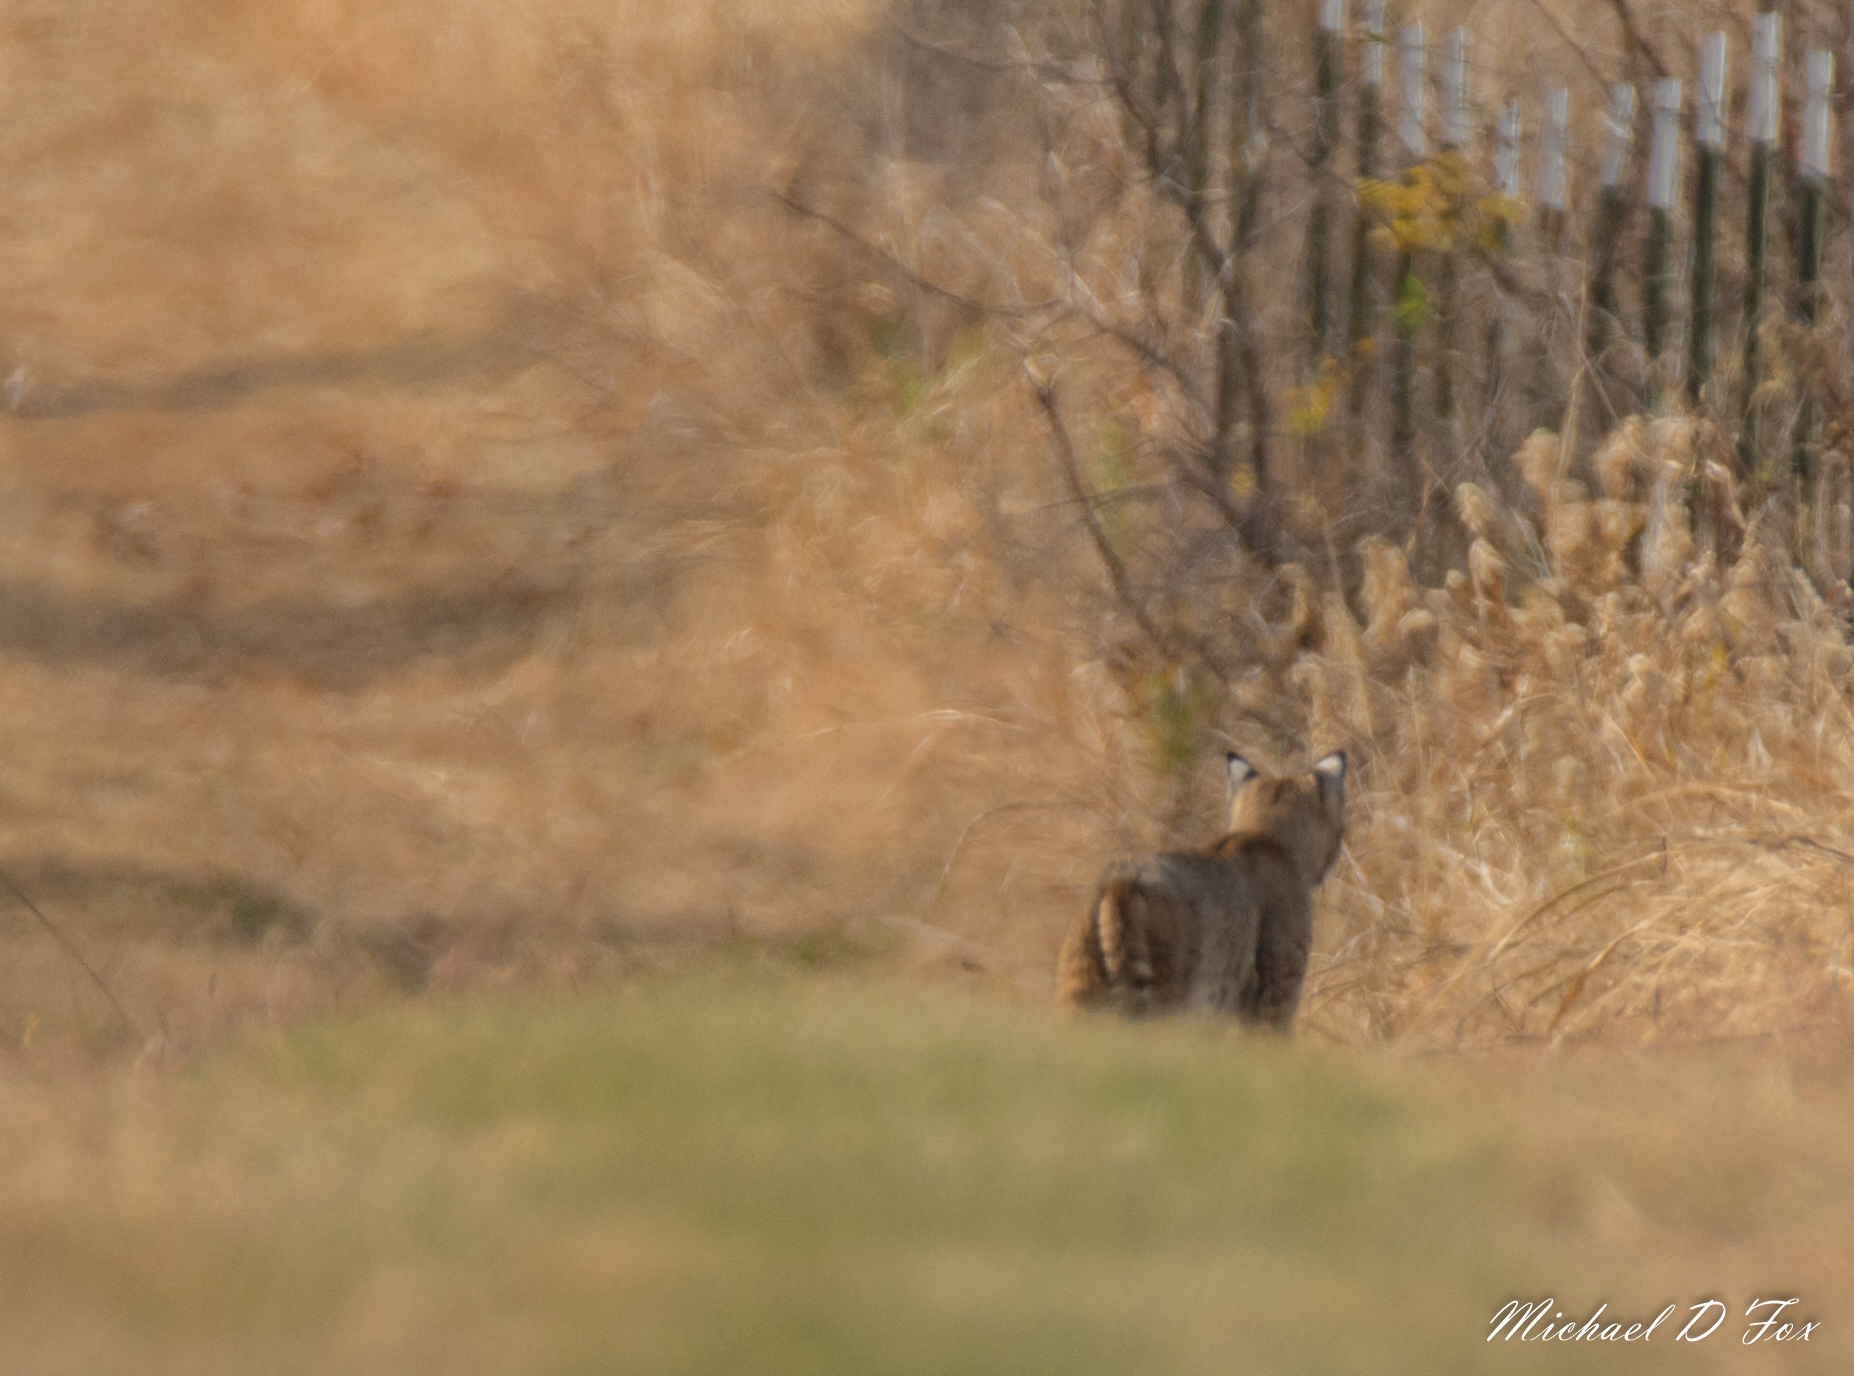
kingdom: Animalia
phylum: Chordata
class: Mammalia
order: Carnivora
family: Felidae
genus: Lynx
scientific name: Lynx rufus
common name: Bobcat
